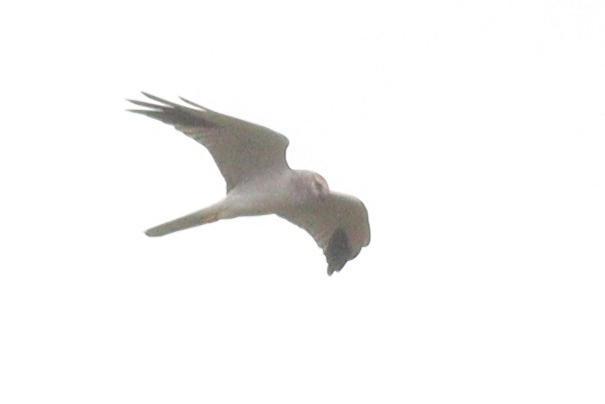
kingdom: Animalia
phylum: Chordata
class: Aves
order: Accipitriformes
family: Accipitridae
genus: Circus
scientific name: Circus macrourus
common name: Pallid harrier
